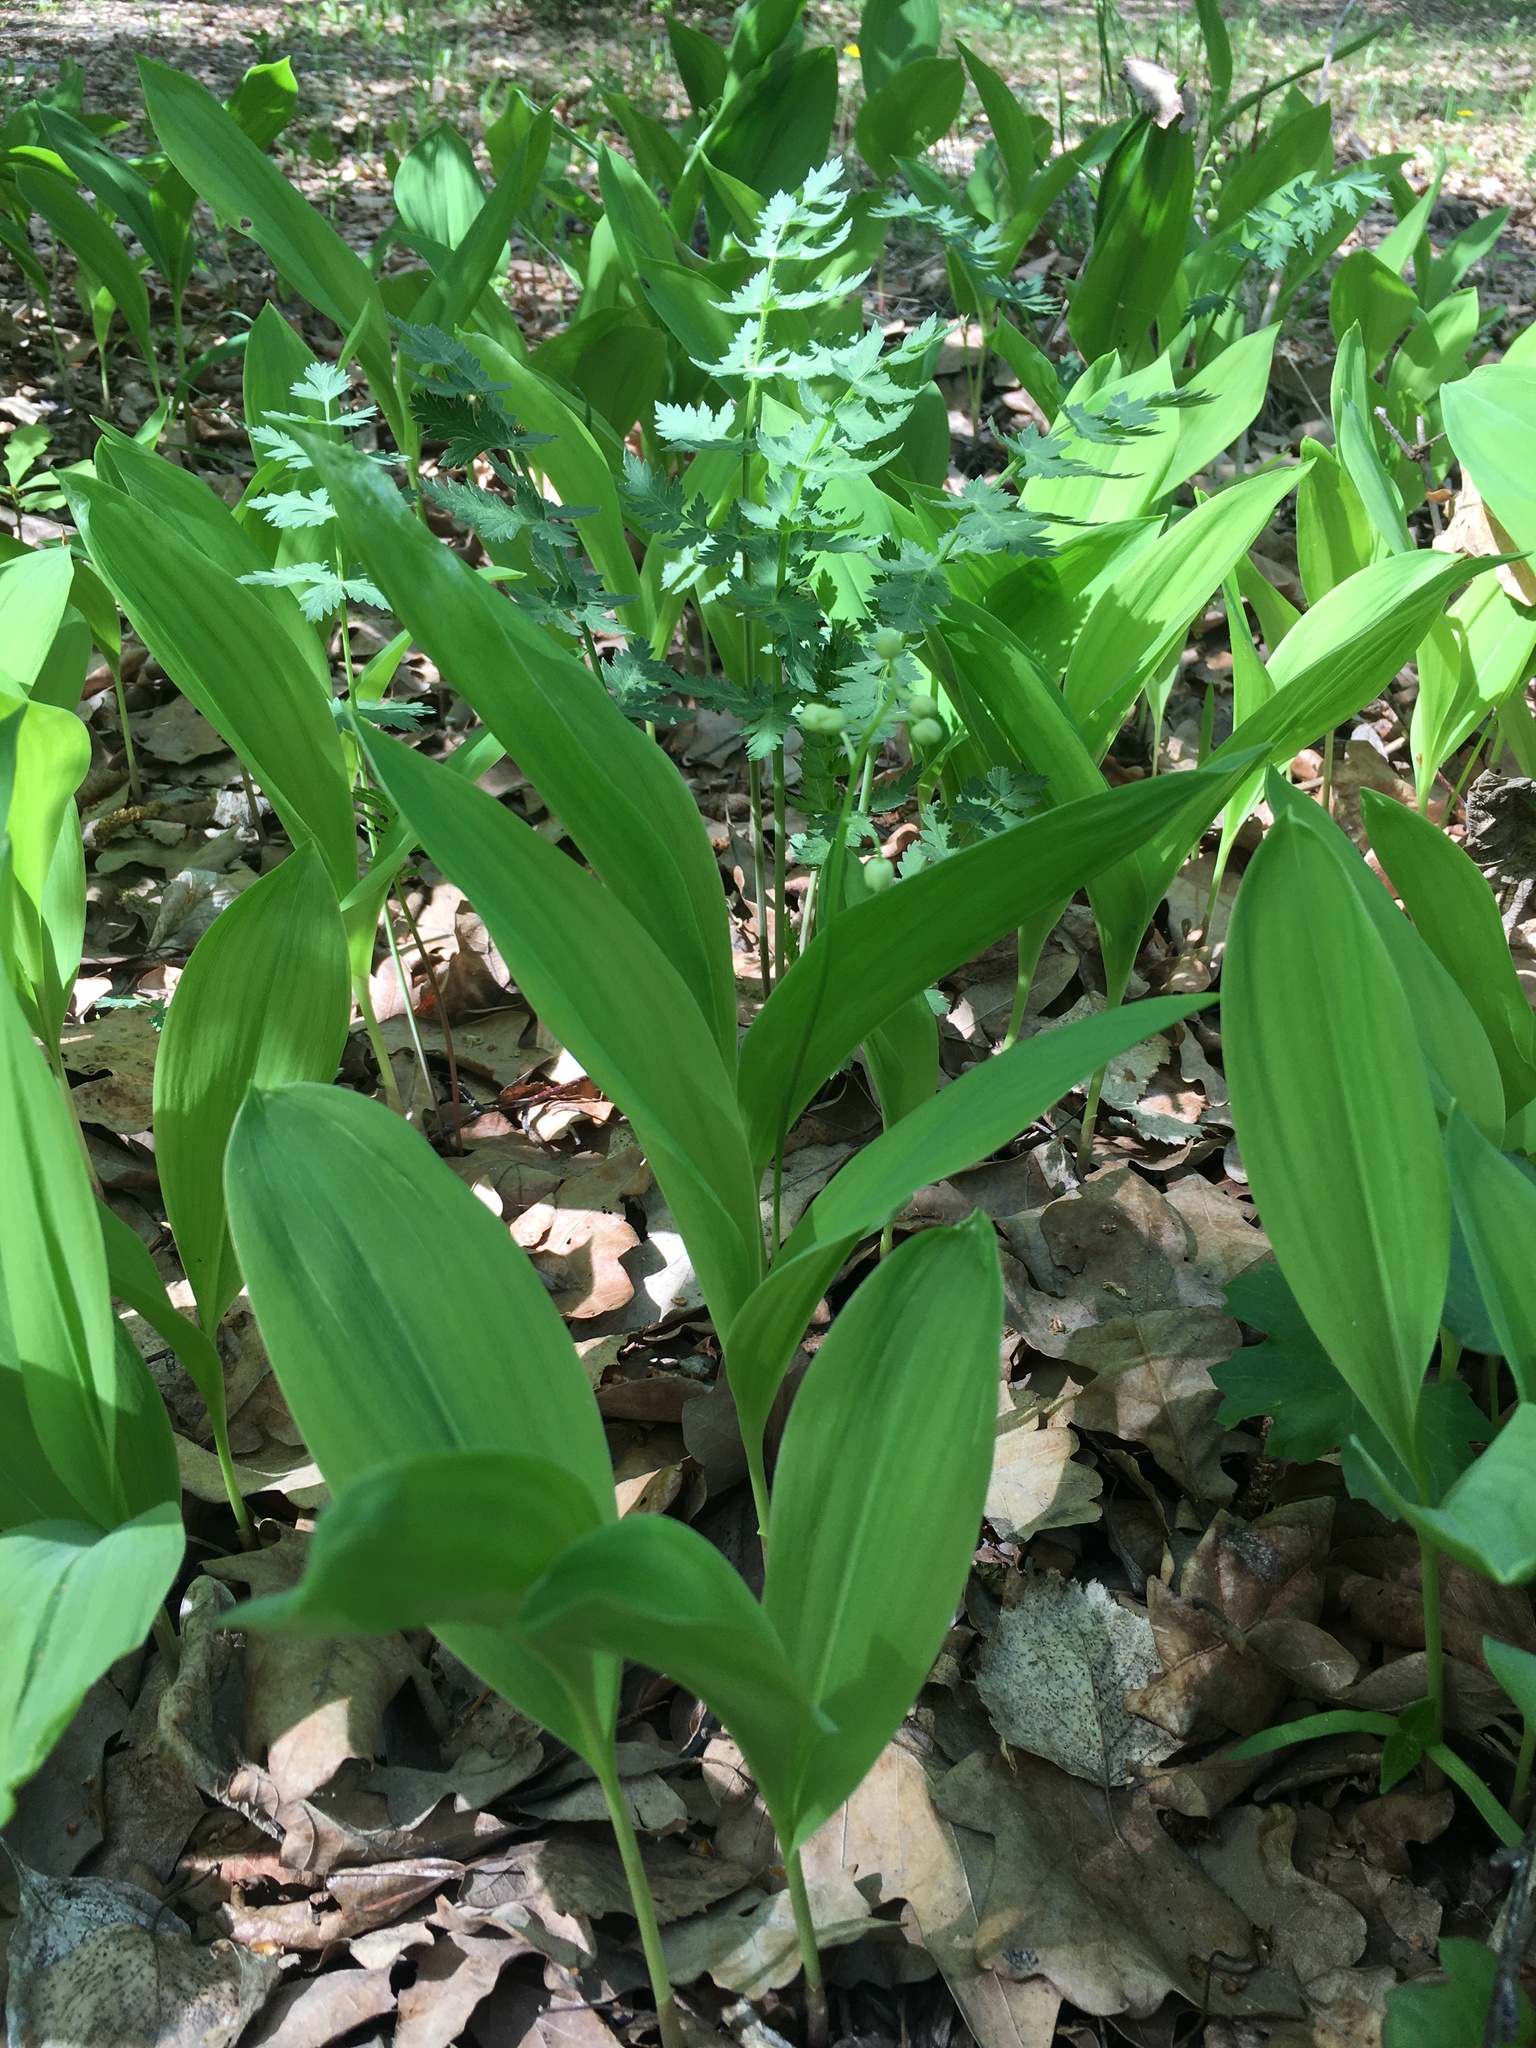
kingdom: Plantae
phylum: Tracheophyta
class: Liliopsida
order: Asparagales
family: Asparagaceae
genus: Convallaria
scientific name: Convallaria majalis
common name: Lily-of-the-valley
